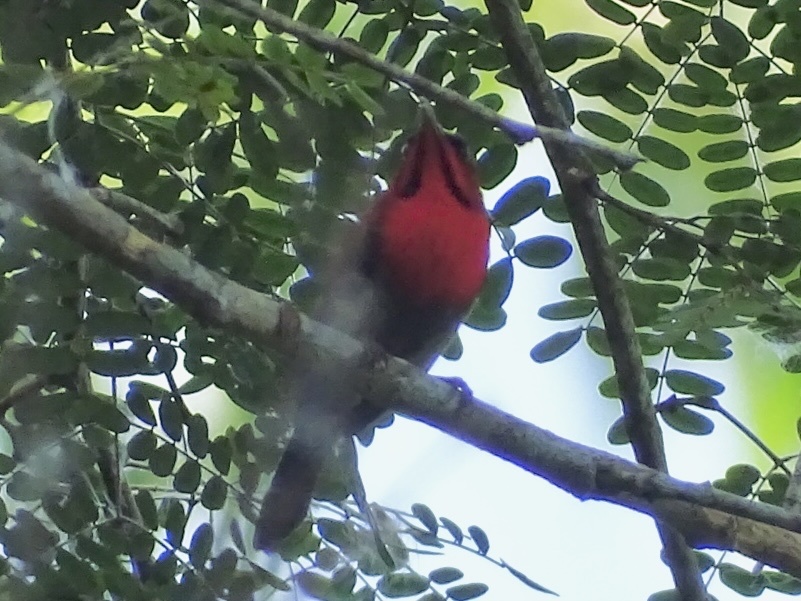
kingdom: Animalia
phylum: Chordata
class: Aves
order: Passeriformes
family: Nectariniidae
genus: Aethopyga
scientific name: Aethopyga siparaja
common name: Crimson sunbird
